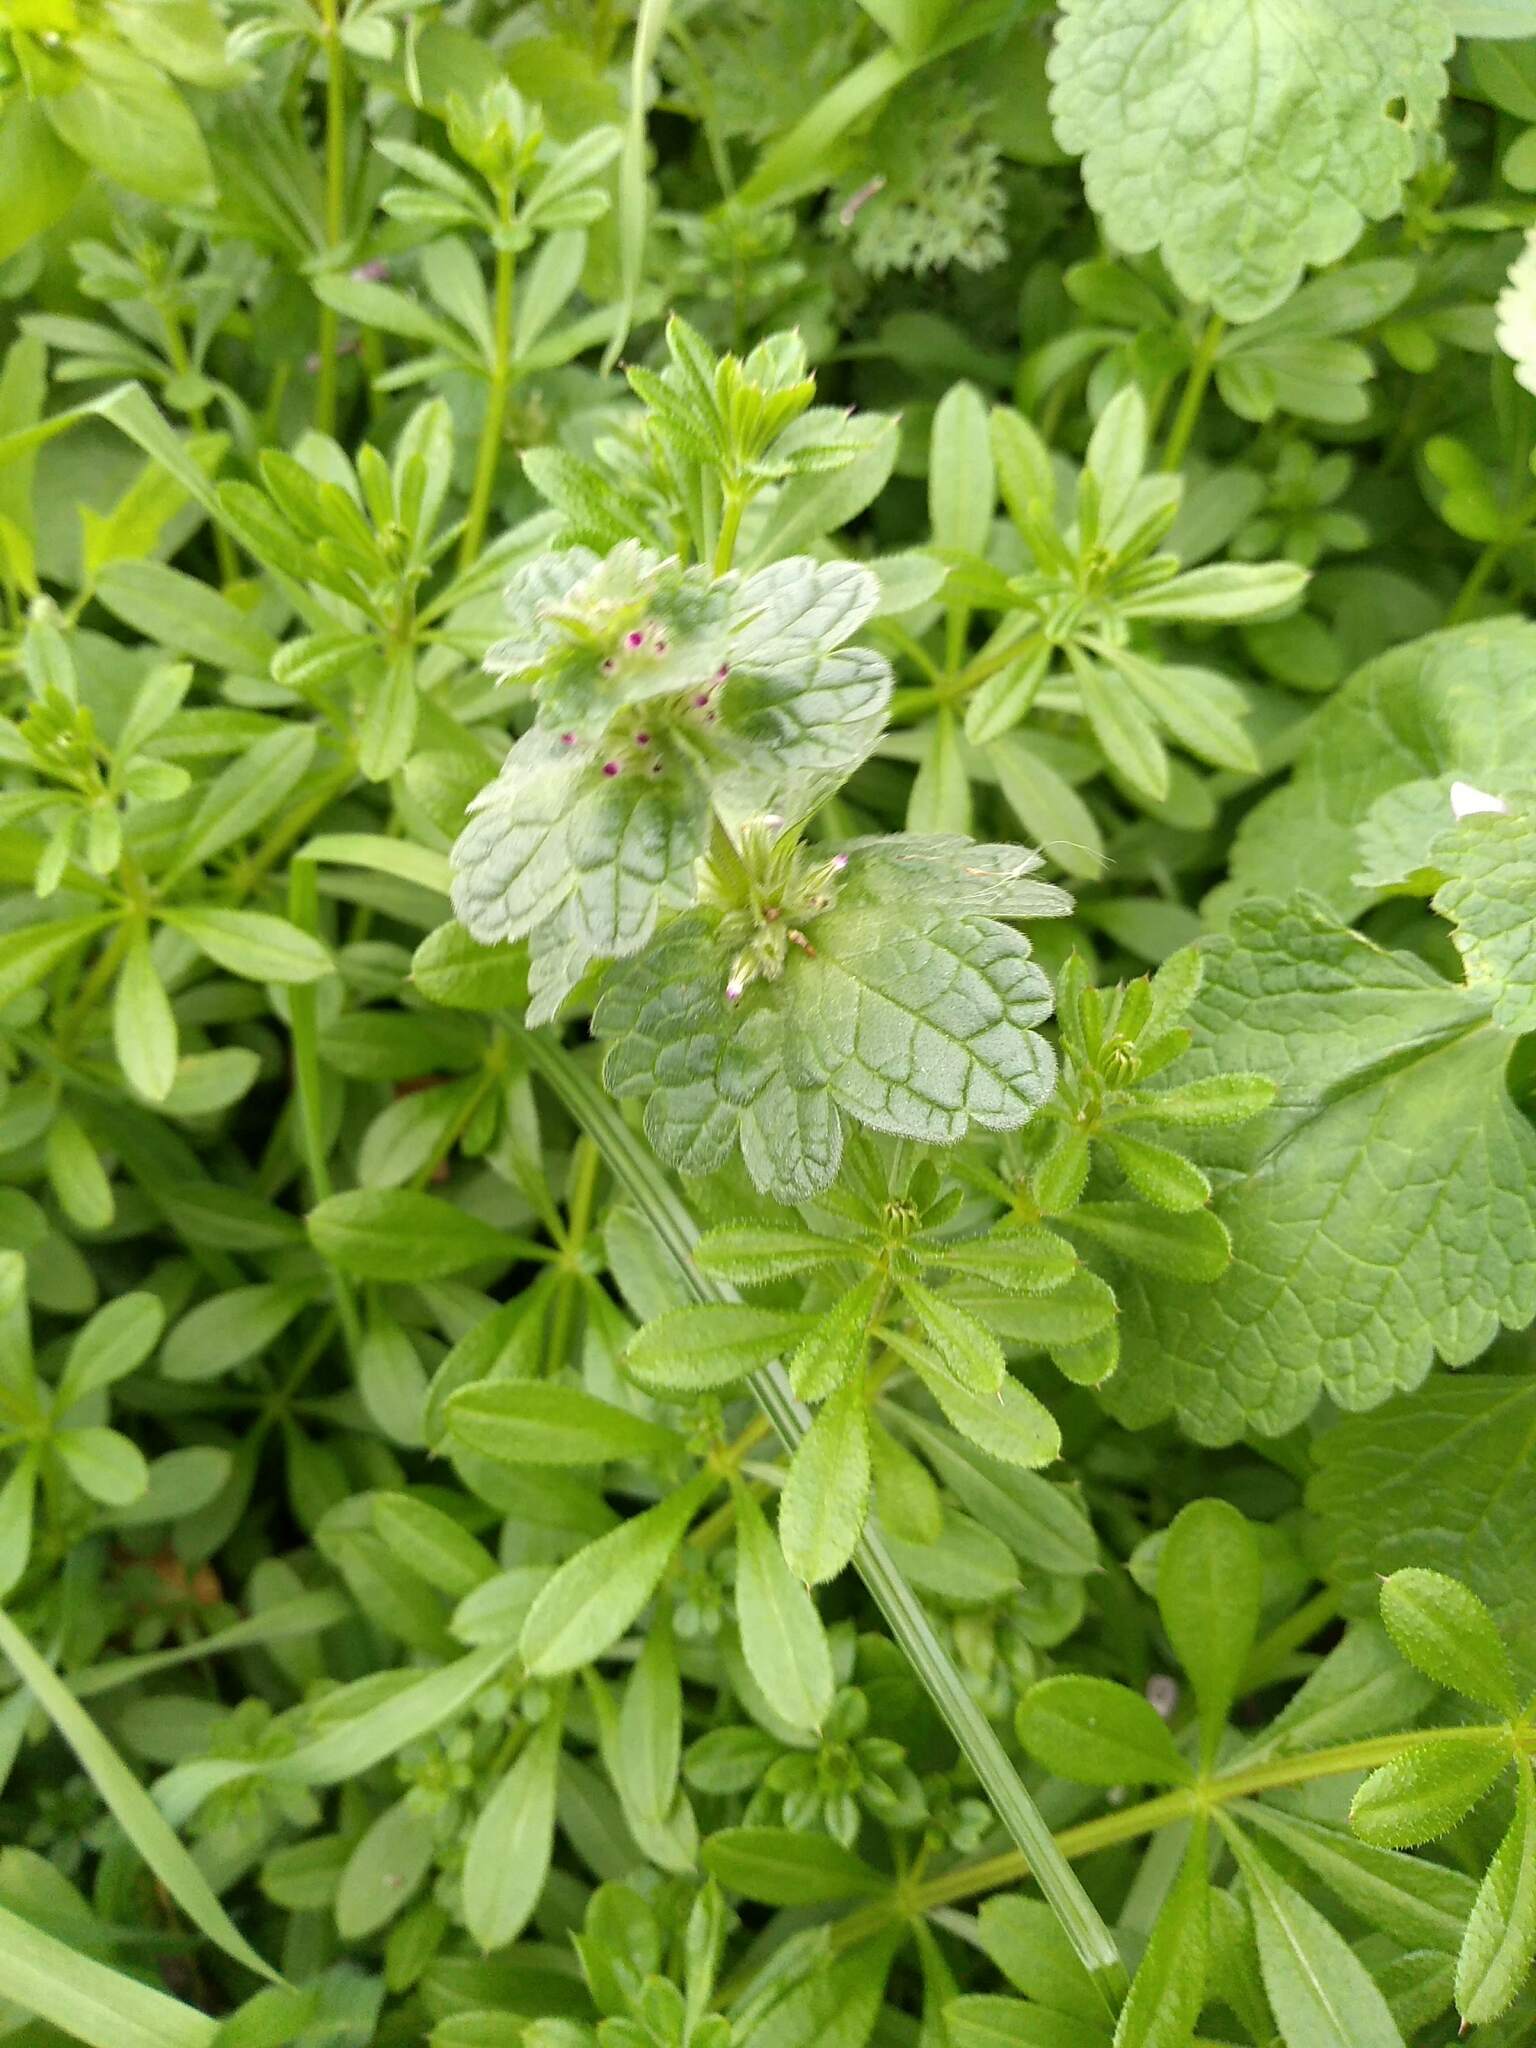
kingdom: Plantae
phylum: Tracheophyta
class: Magnoliopsida
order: Lamiales
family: Lamiaceae
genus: Lamium
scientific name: Lamium amplexicaule
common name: Henbit dead-nettle
